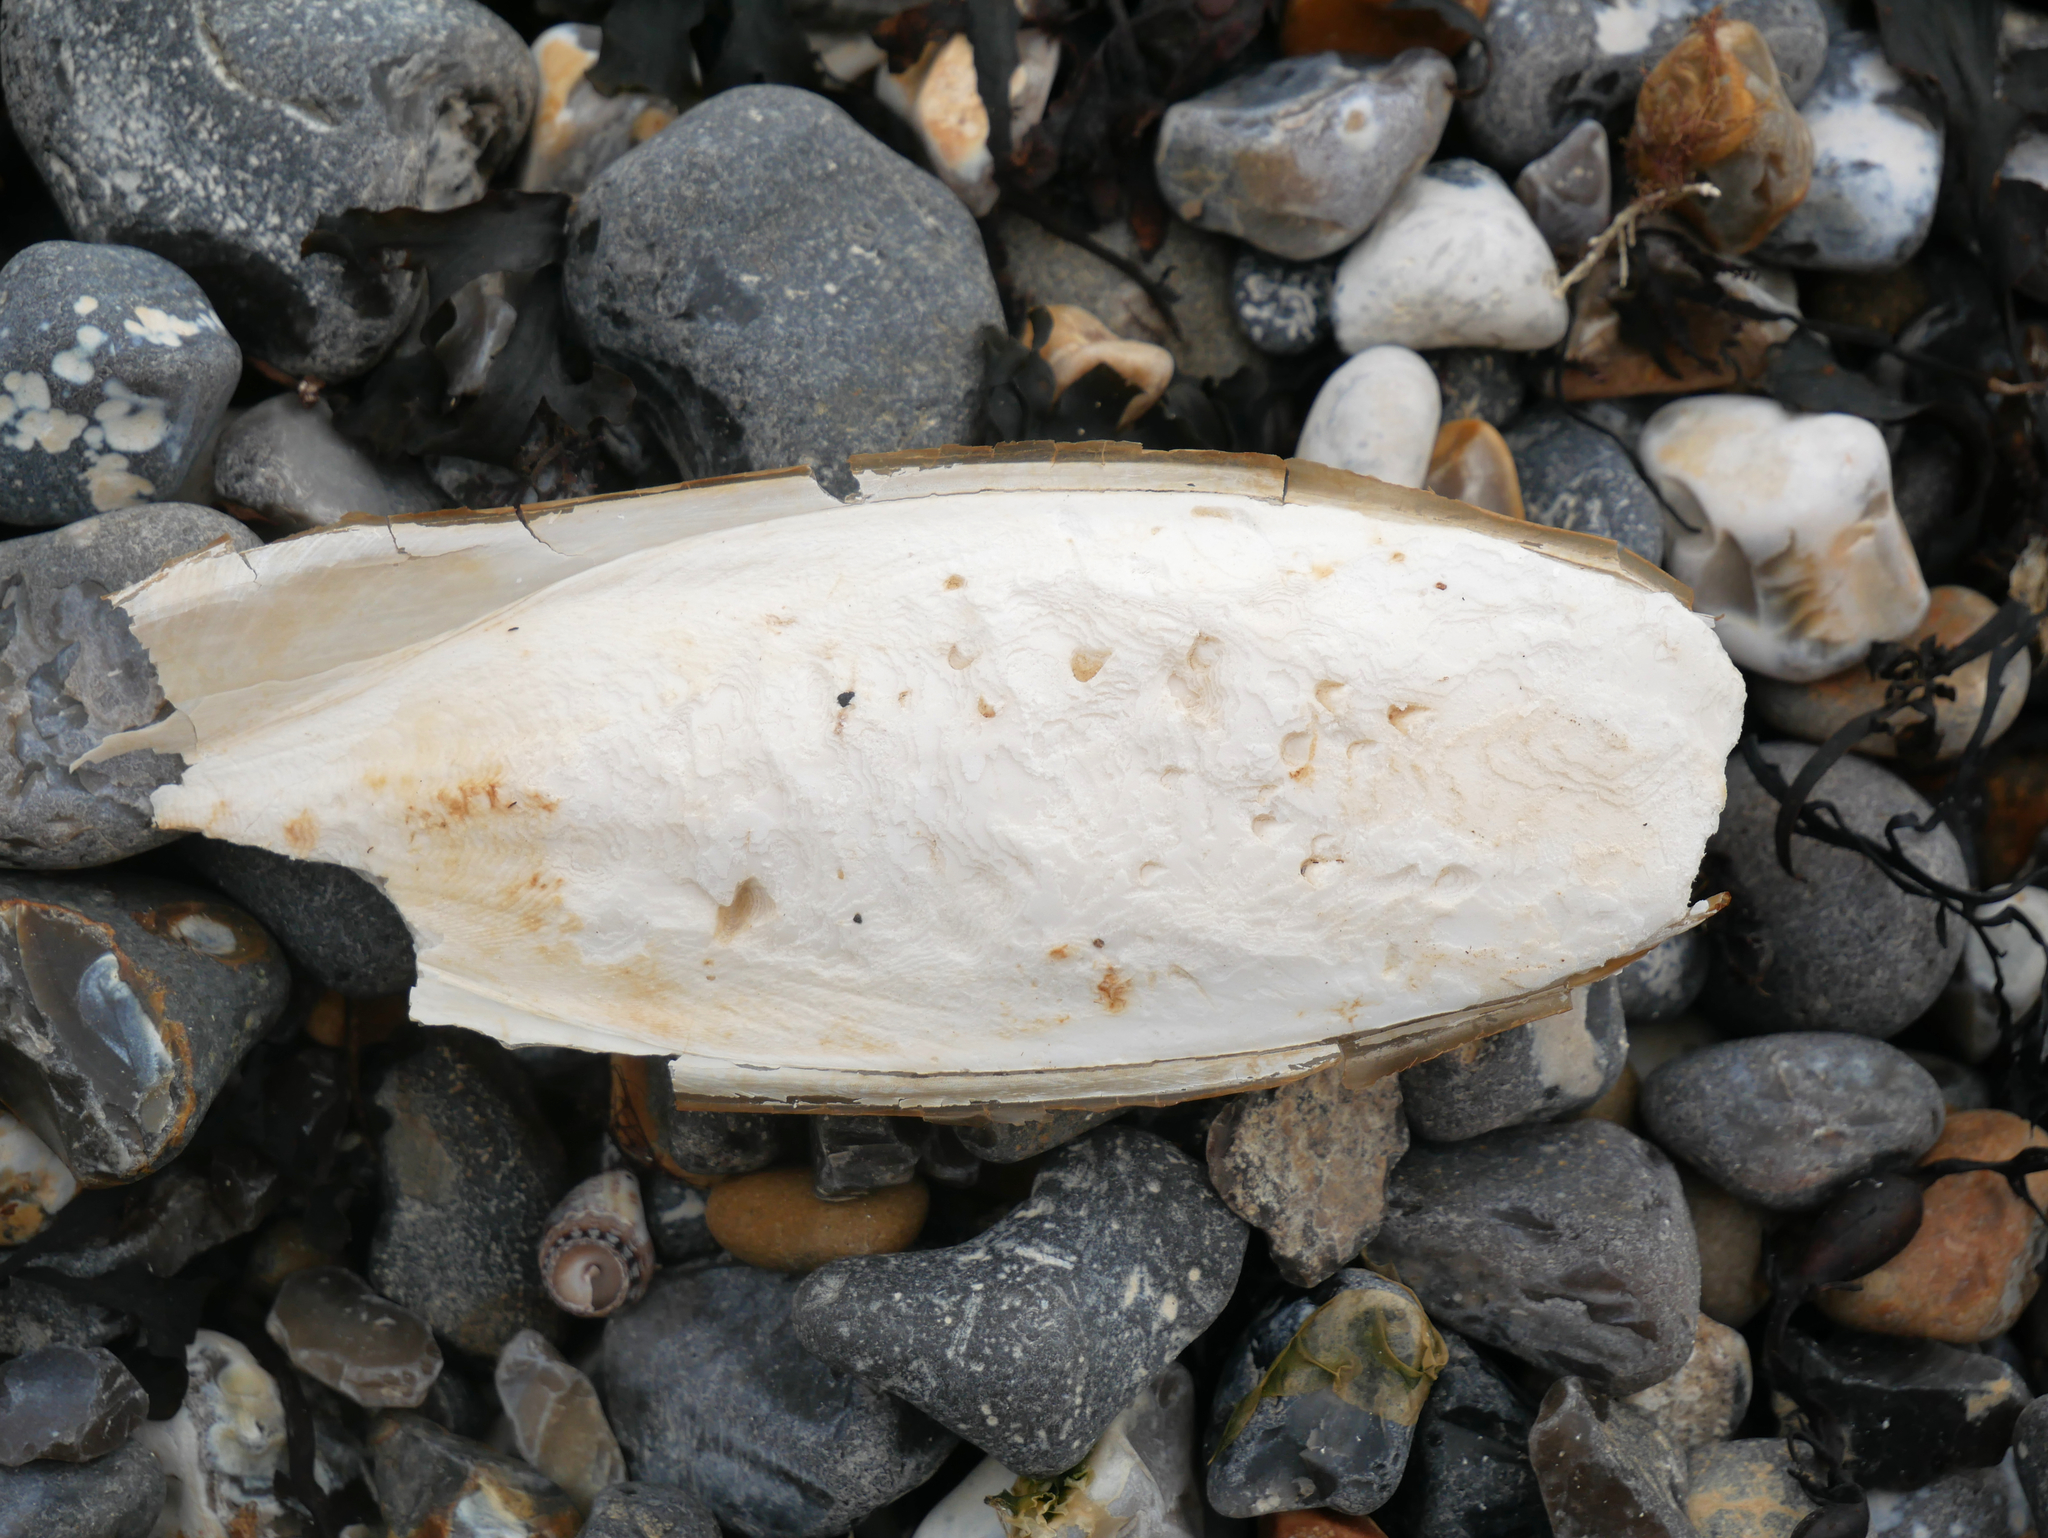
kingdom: Animalia
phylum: Mollusca
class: Cephalopoda
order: Sepiida
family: Sepiidae
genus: Sepia
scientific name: Sepia officinalis
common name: Common cuttlefish
